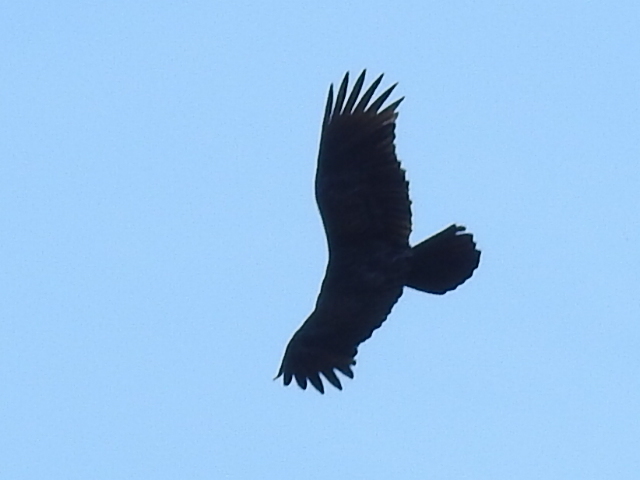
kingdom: Animalia
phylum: Chordata
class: Aves
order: Accipitriformes
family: Cathartidae
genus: Cathartes
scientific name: Cathartes aura
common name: Turkey vulture
